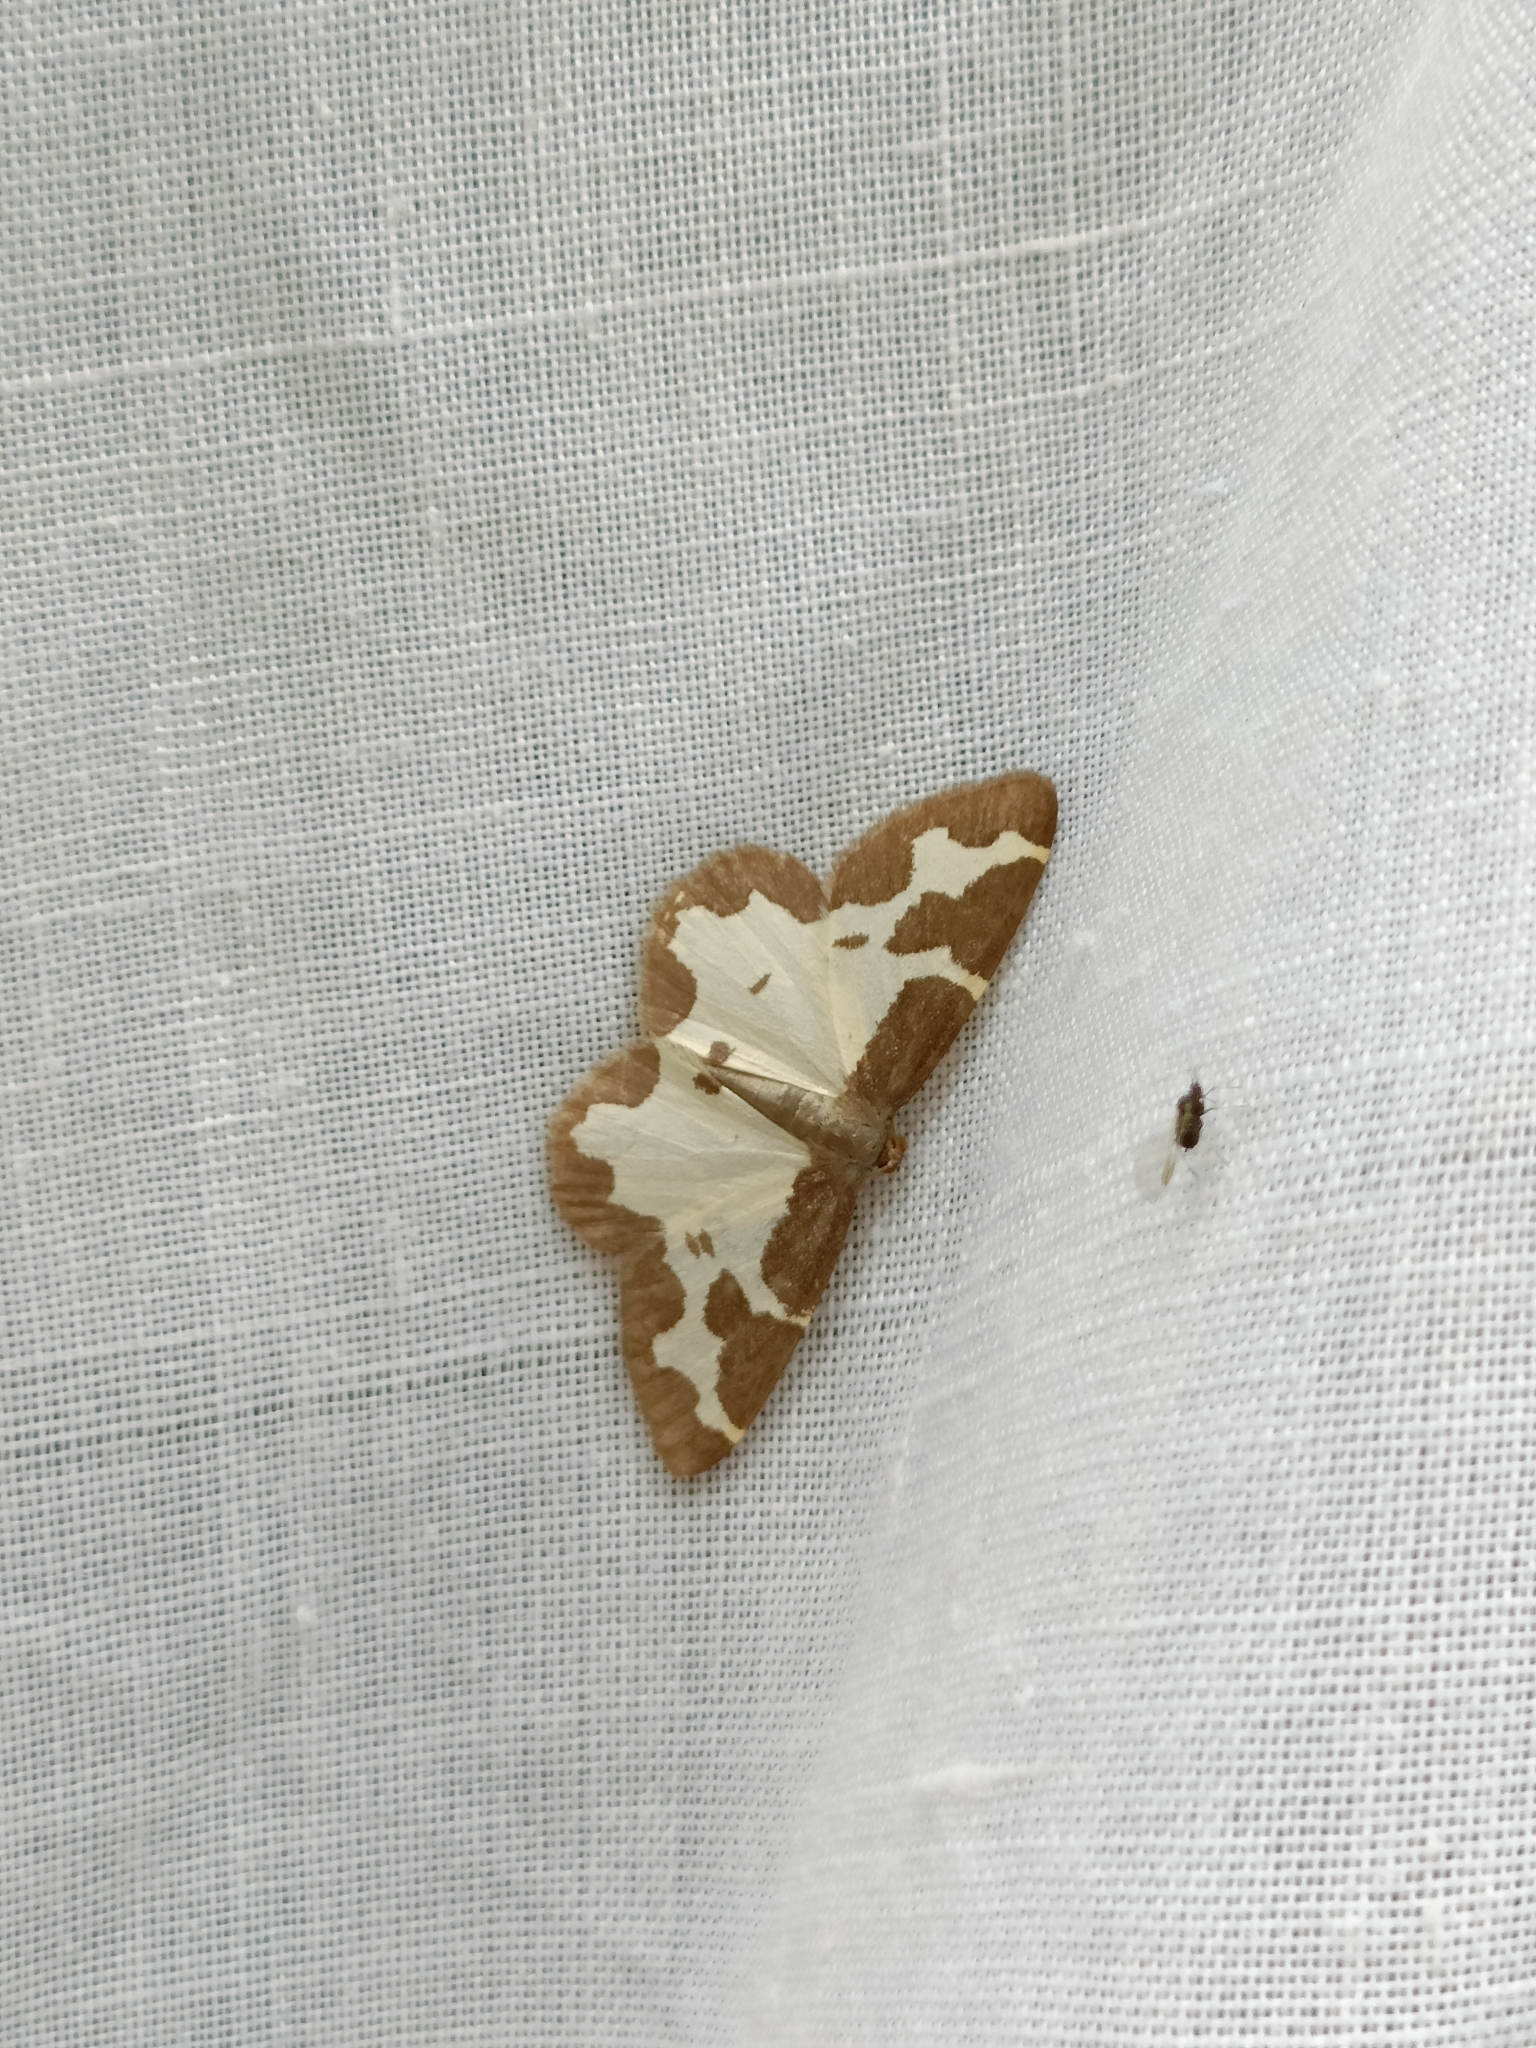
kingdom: Animalia
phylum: Arthropoda
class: Insecta
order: Lepidoptera
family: Geometridae
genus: Lomaspilis
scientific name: Lomaspilis marginata
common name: Clouded border
